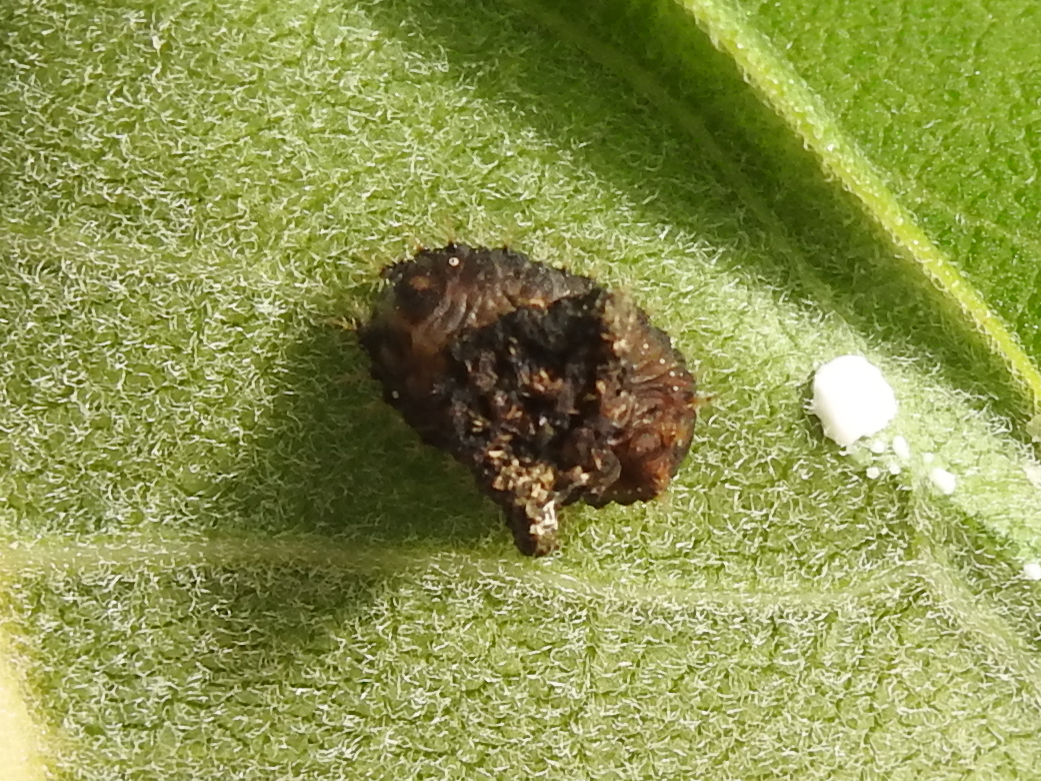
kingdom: Animalia
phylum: Arthropoda
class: Insecta
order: Coleoptera
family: Chrysomelidae
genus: Charidotella
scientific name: Charidotella sexpunctata
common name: Golden tortoise beetle
